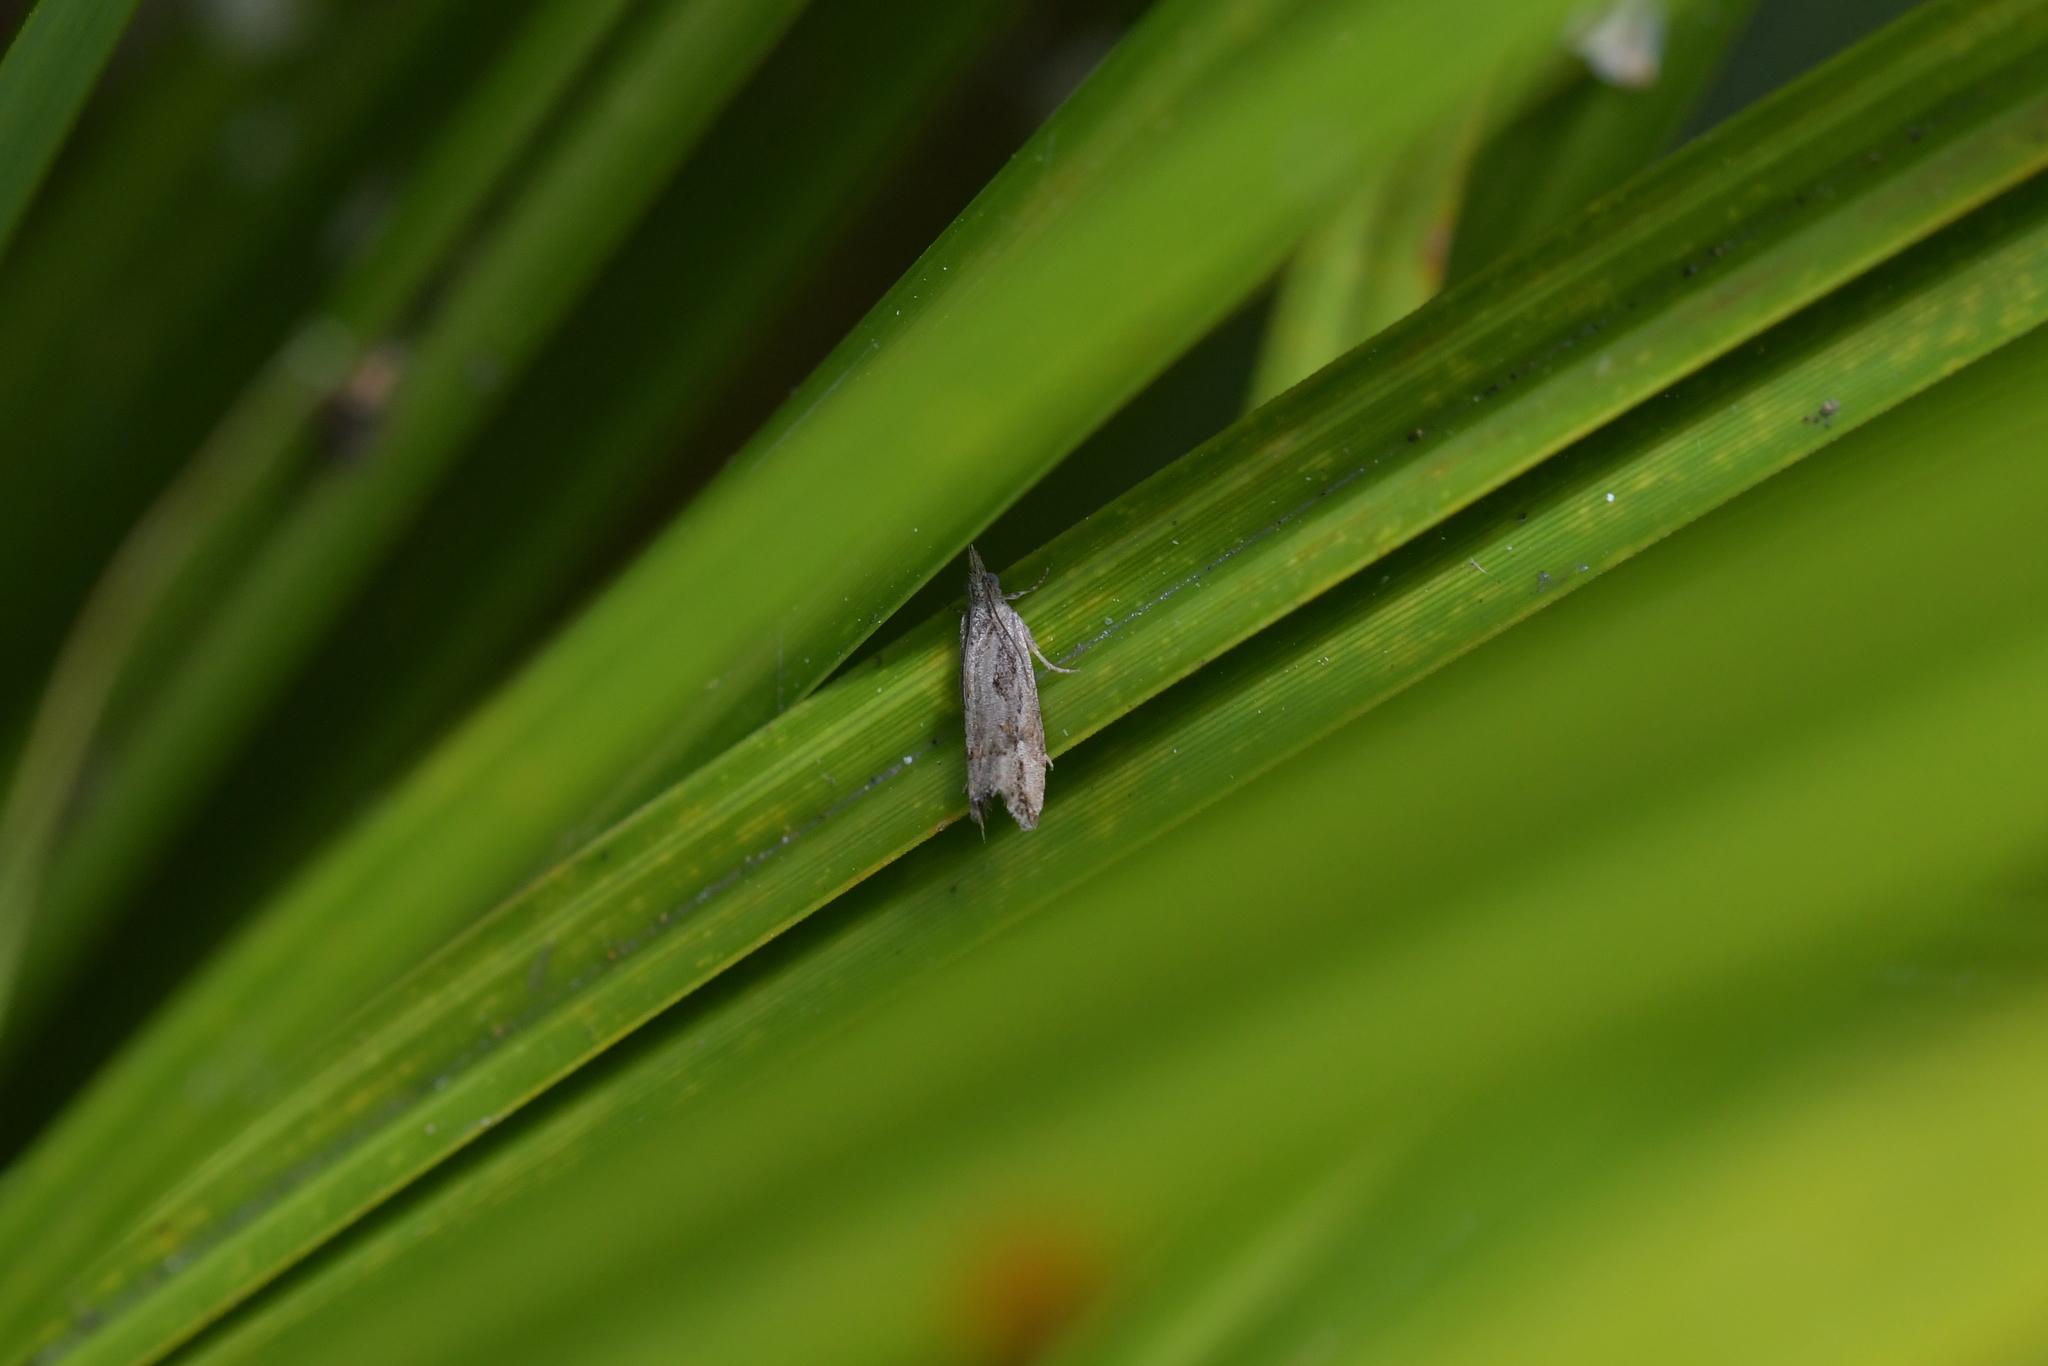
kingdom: Animalia
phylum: Arthropoda
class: Insecta
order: Lepidoptera
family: Tortricidae
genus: Strepsicrates
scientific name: Strepsicrates ejectana
